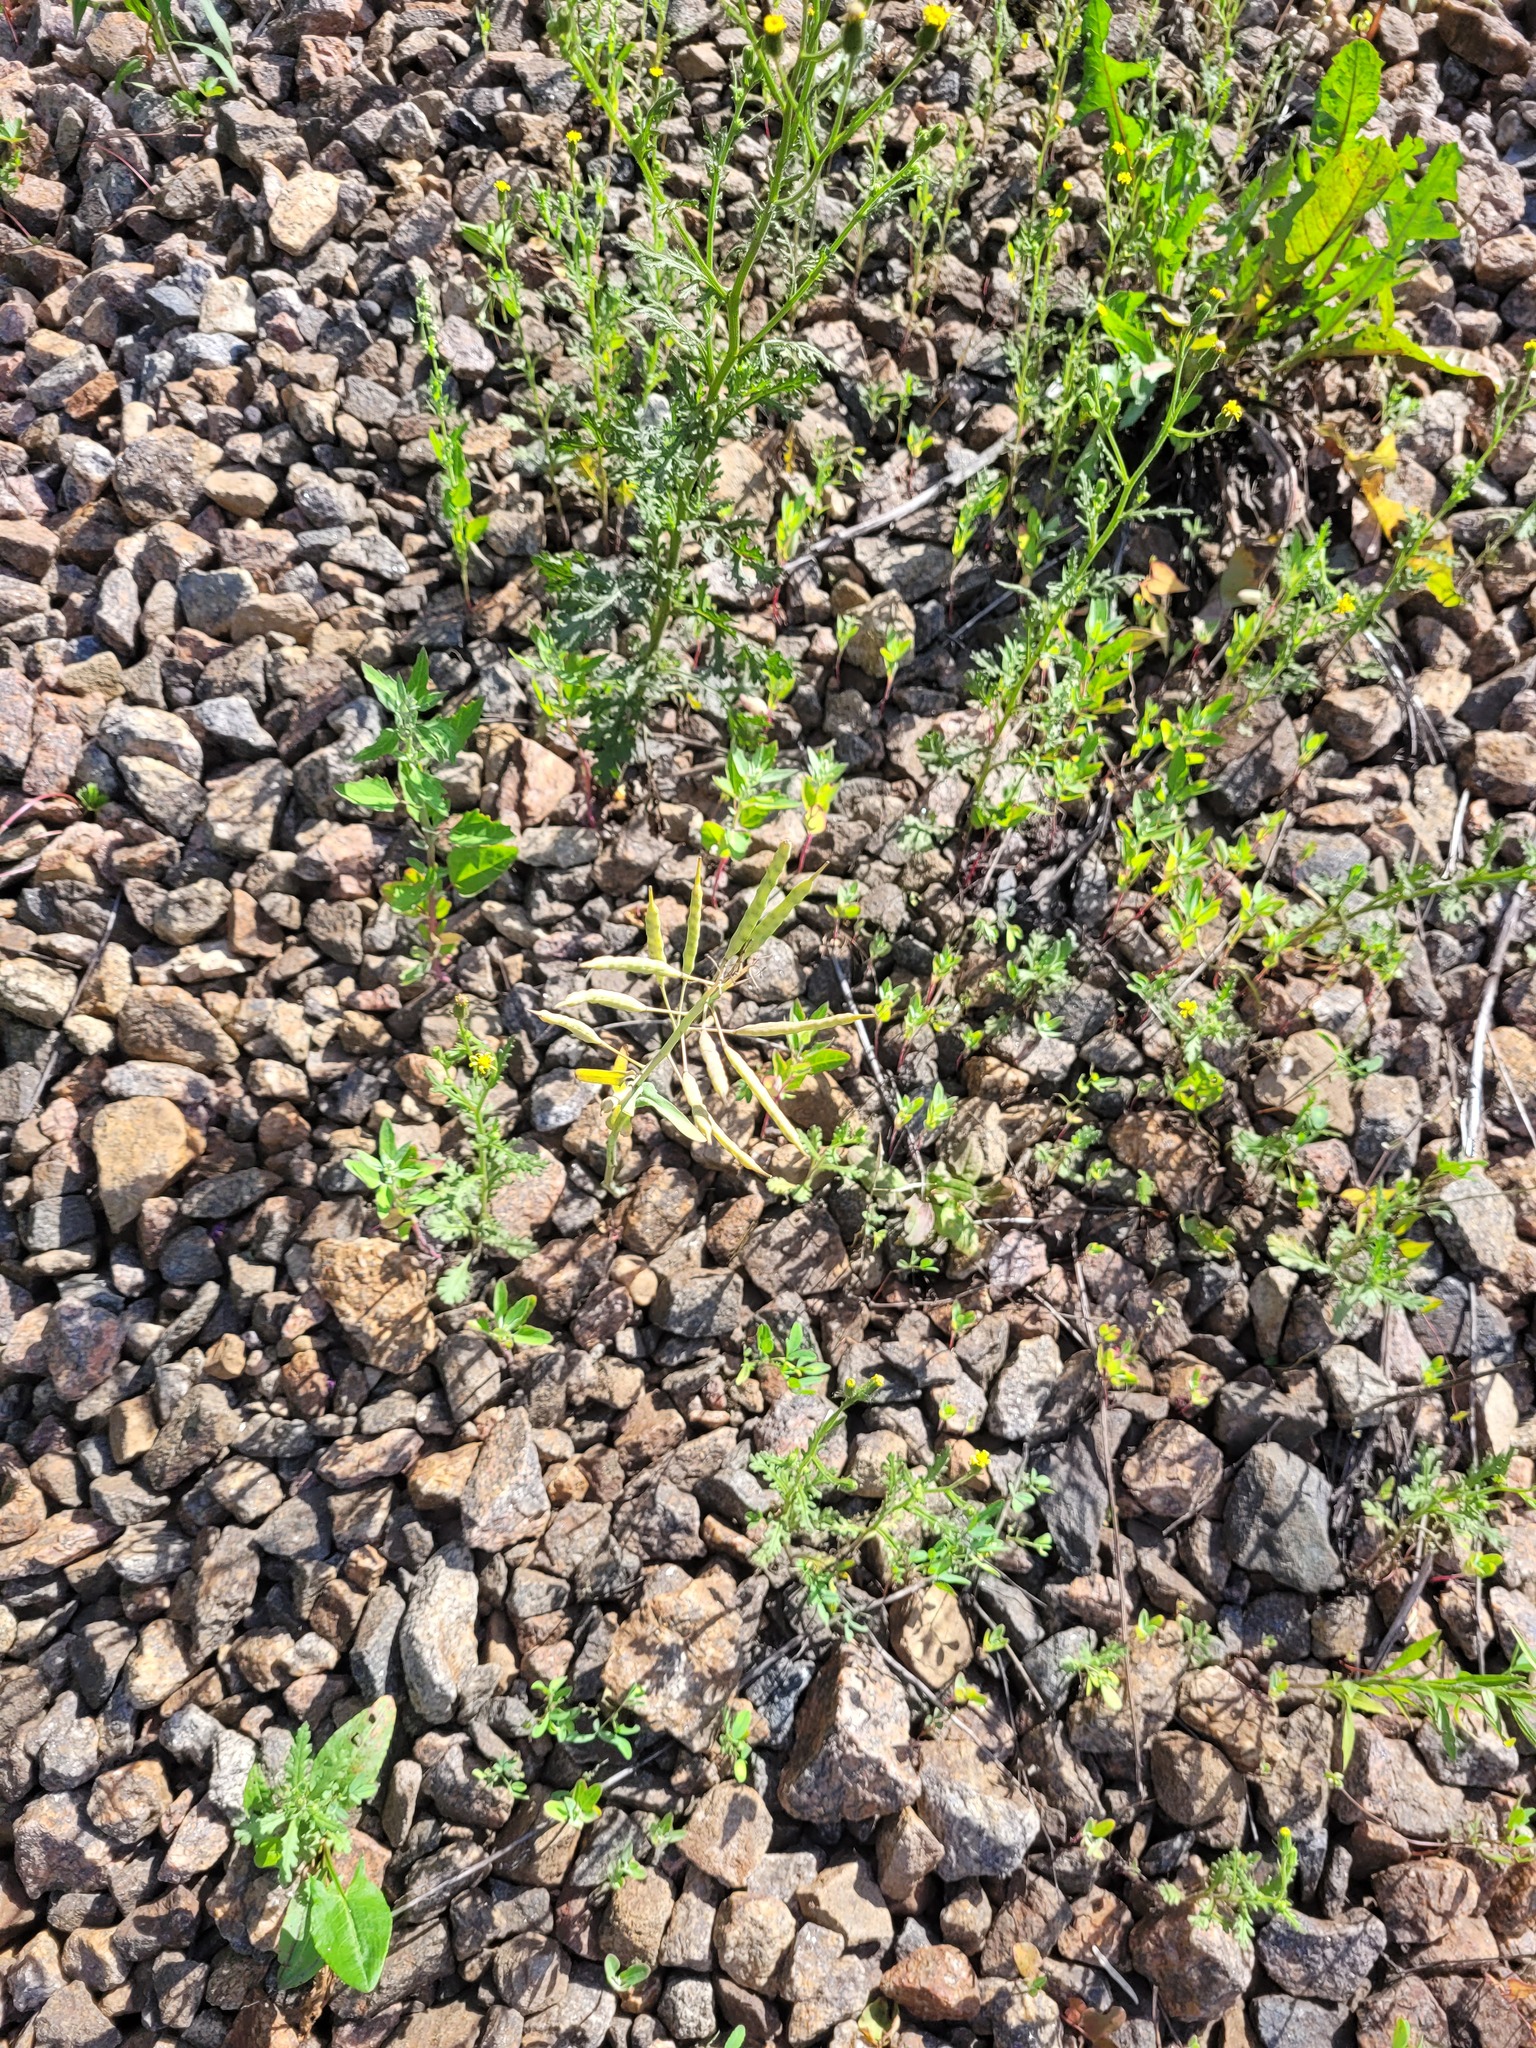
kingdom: Plantae
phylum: Tracheophyta
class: Magnoliopsida
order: Brassicales
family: Brassicaceae
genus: Brassica
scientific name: Brassica napus
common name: Rape
